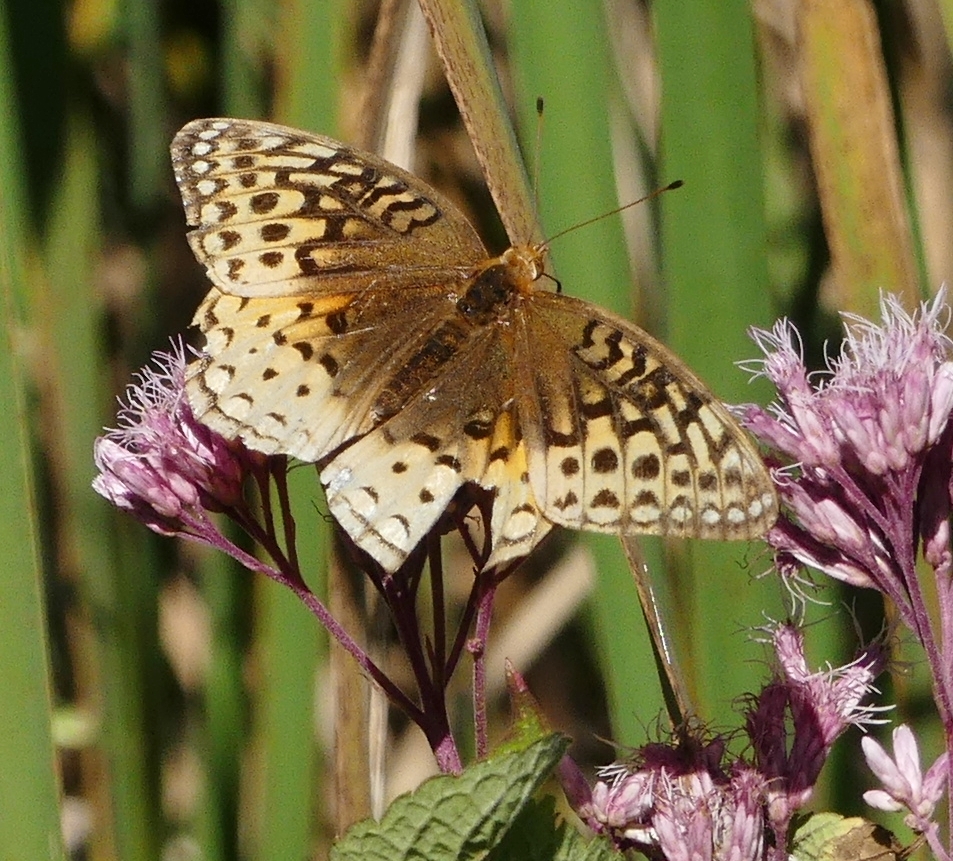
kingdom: Animalia
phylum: Arthropoda
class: Insecta
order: Lepidoptera
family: Nymphalidae
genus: Speyeria
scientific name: Speyeria cybele
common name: Great spangled fritillary
